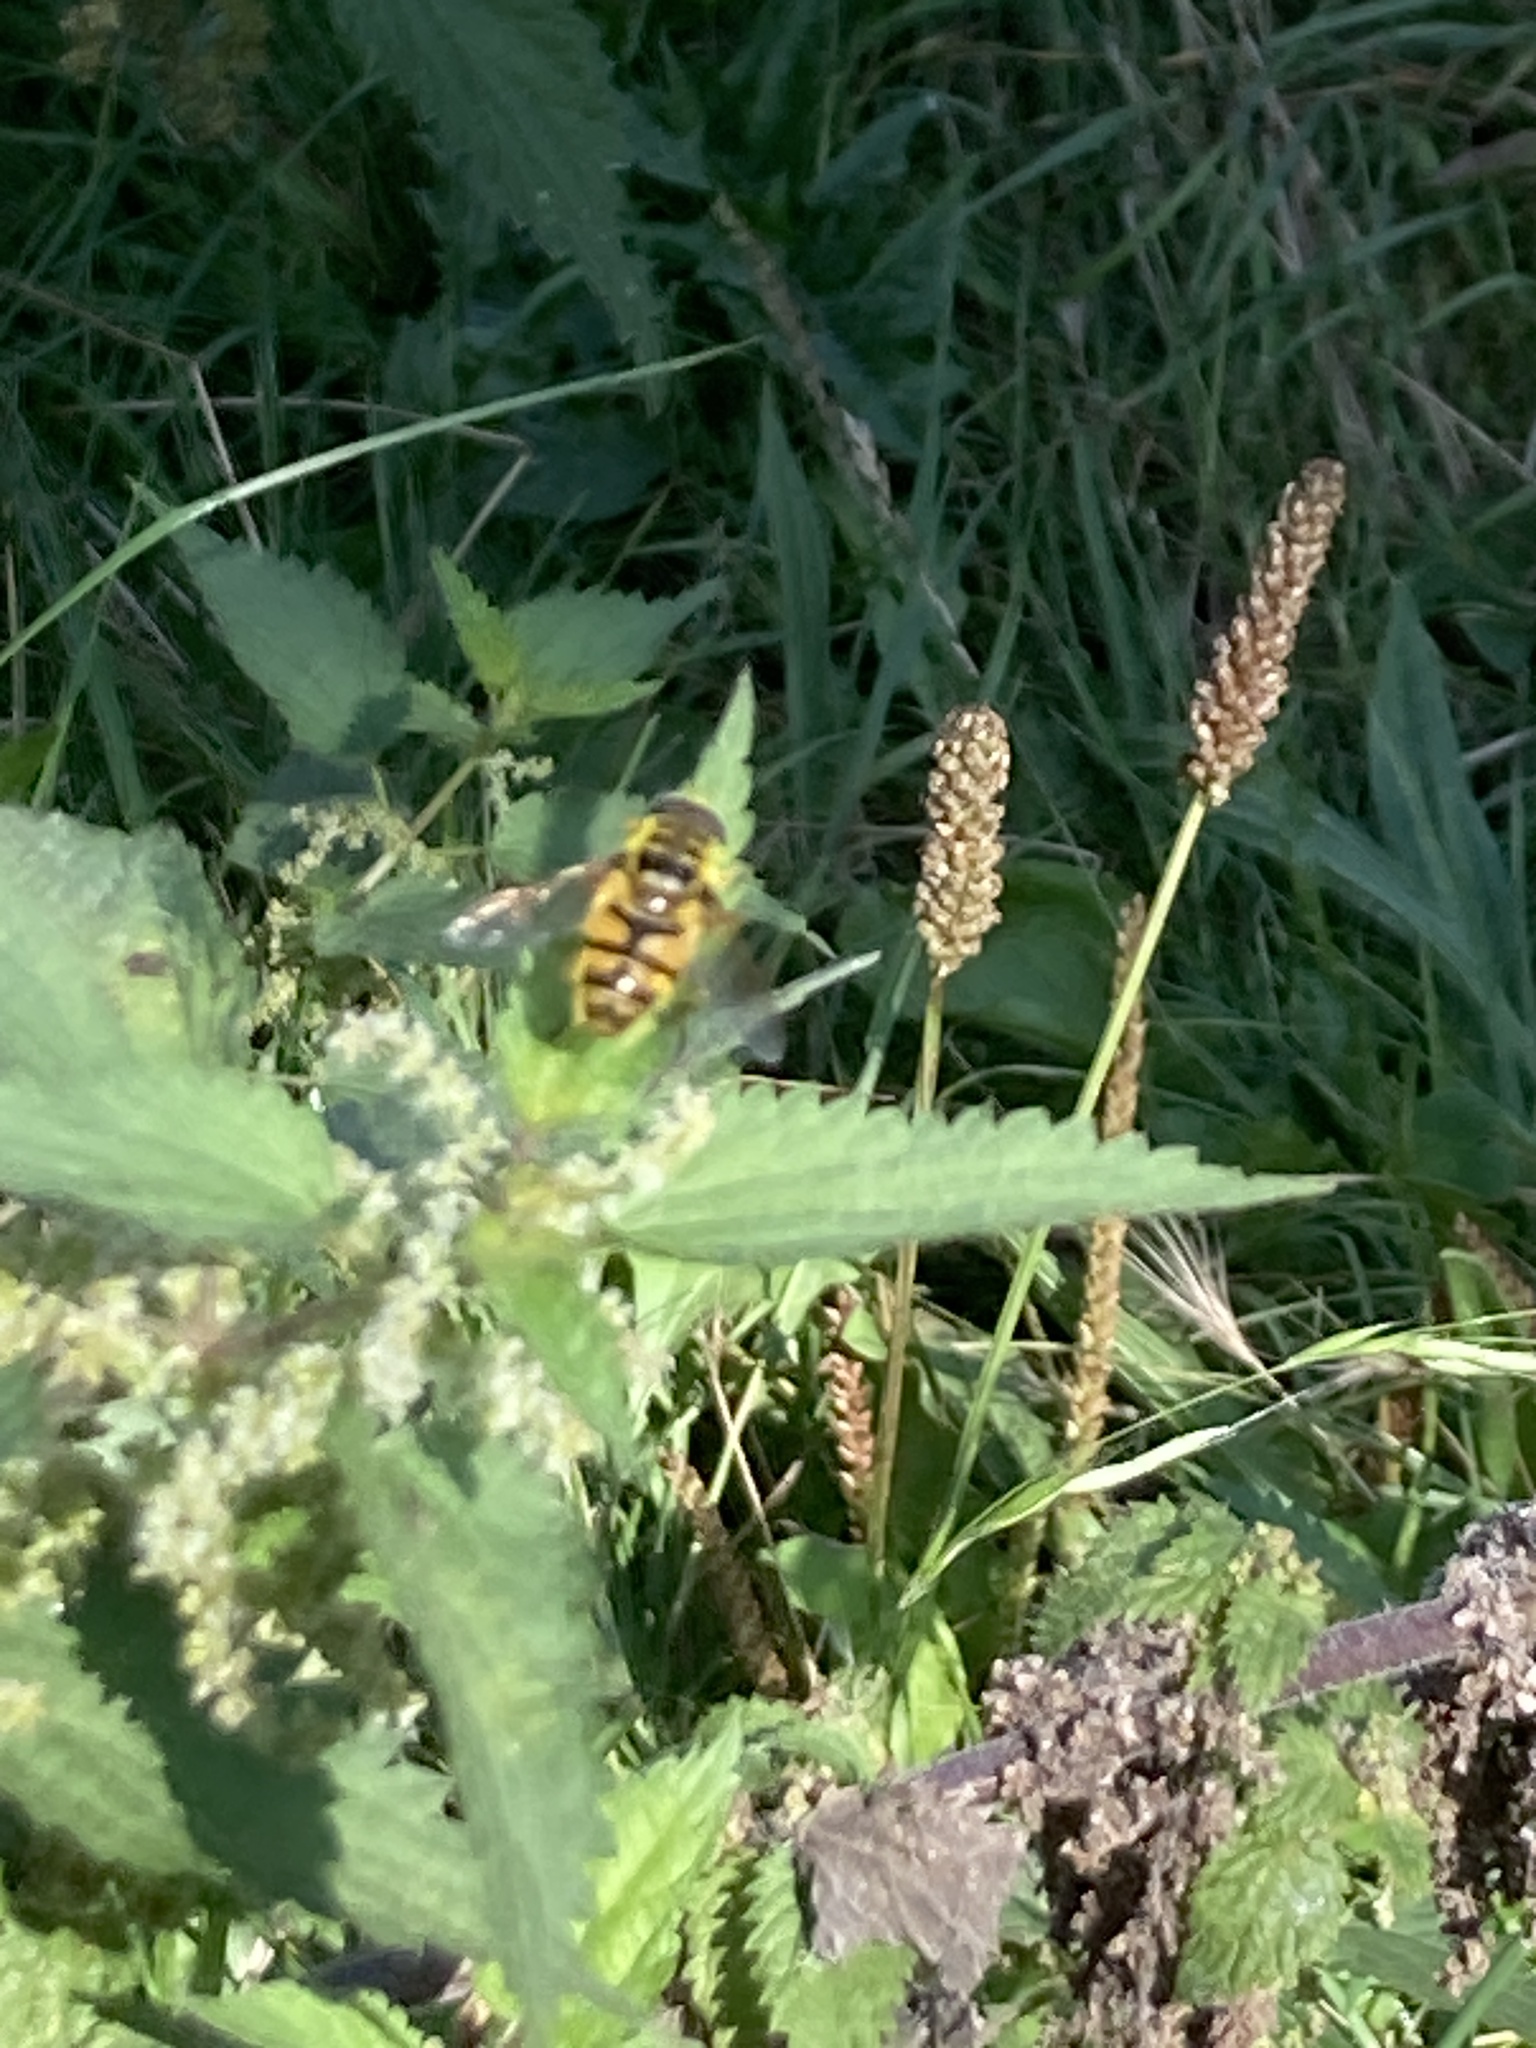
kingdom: Animalia
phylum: Arthropoda
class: Insecta
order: Diptera
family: Syrphidae
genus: Myathropa
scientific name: Myathropa florea
